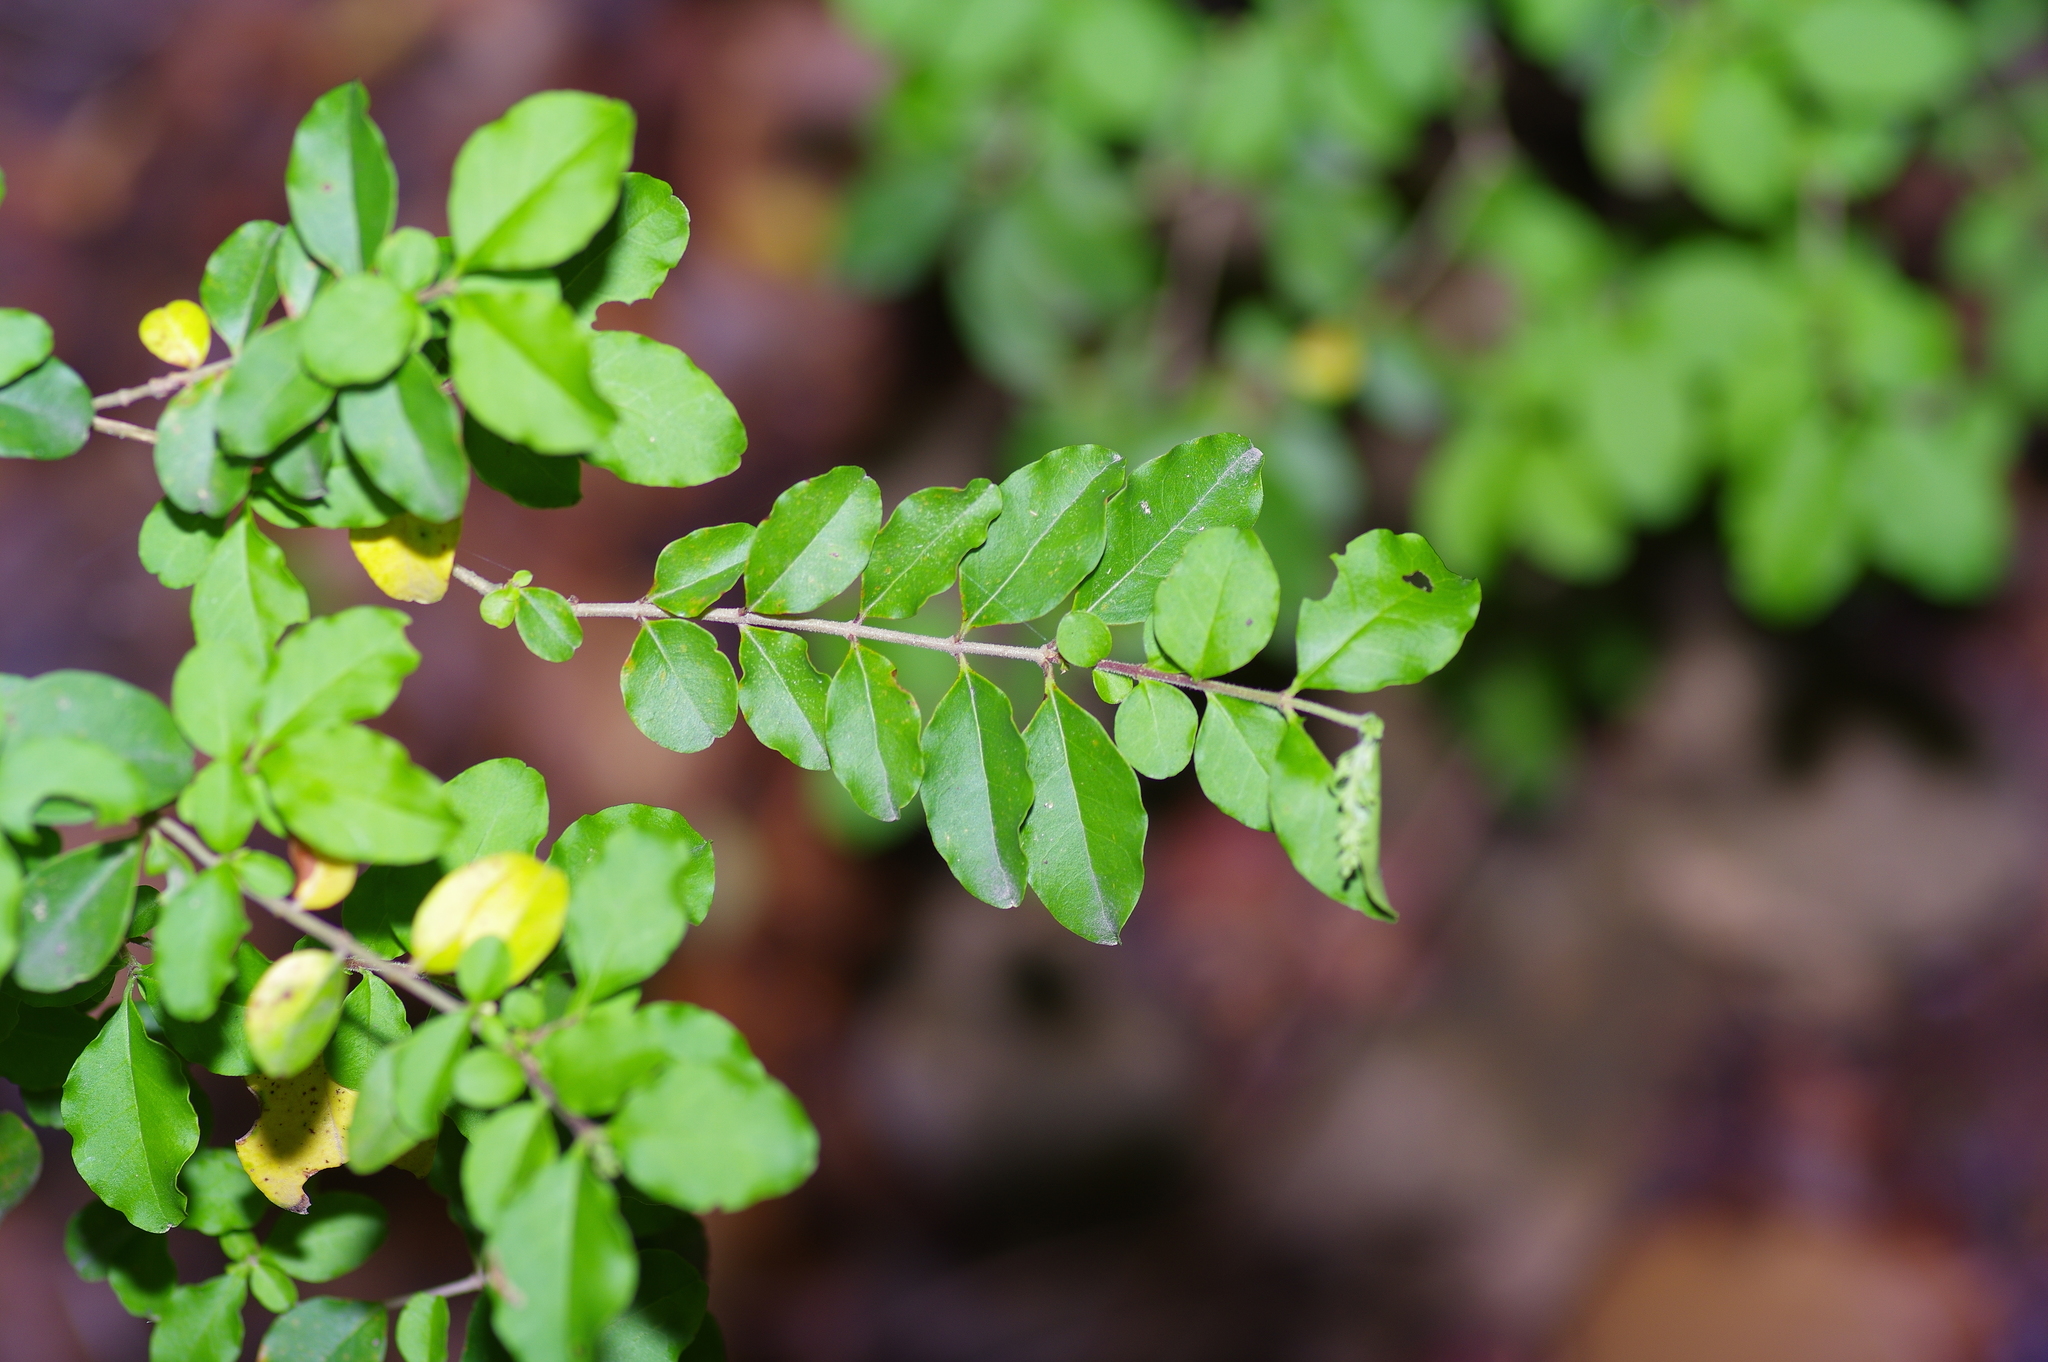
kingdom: Plantae
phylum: Tracheophyta
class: Magnoliopsida
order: Lamiales
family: Oleaceae
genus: Ligustrum
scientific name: Ligustrum sinense
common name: Chinese privet
